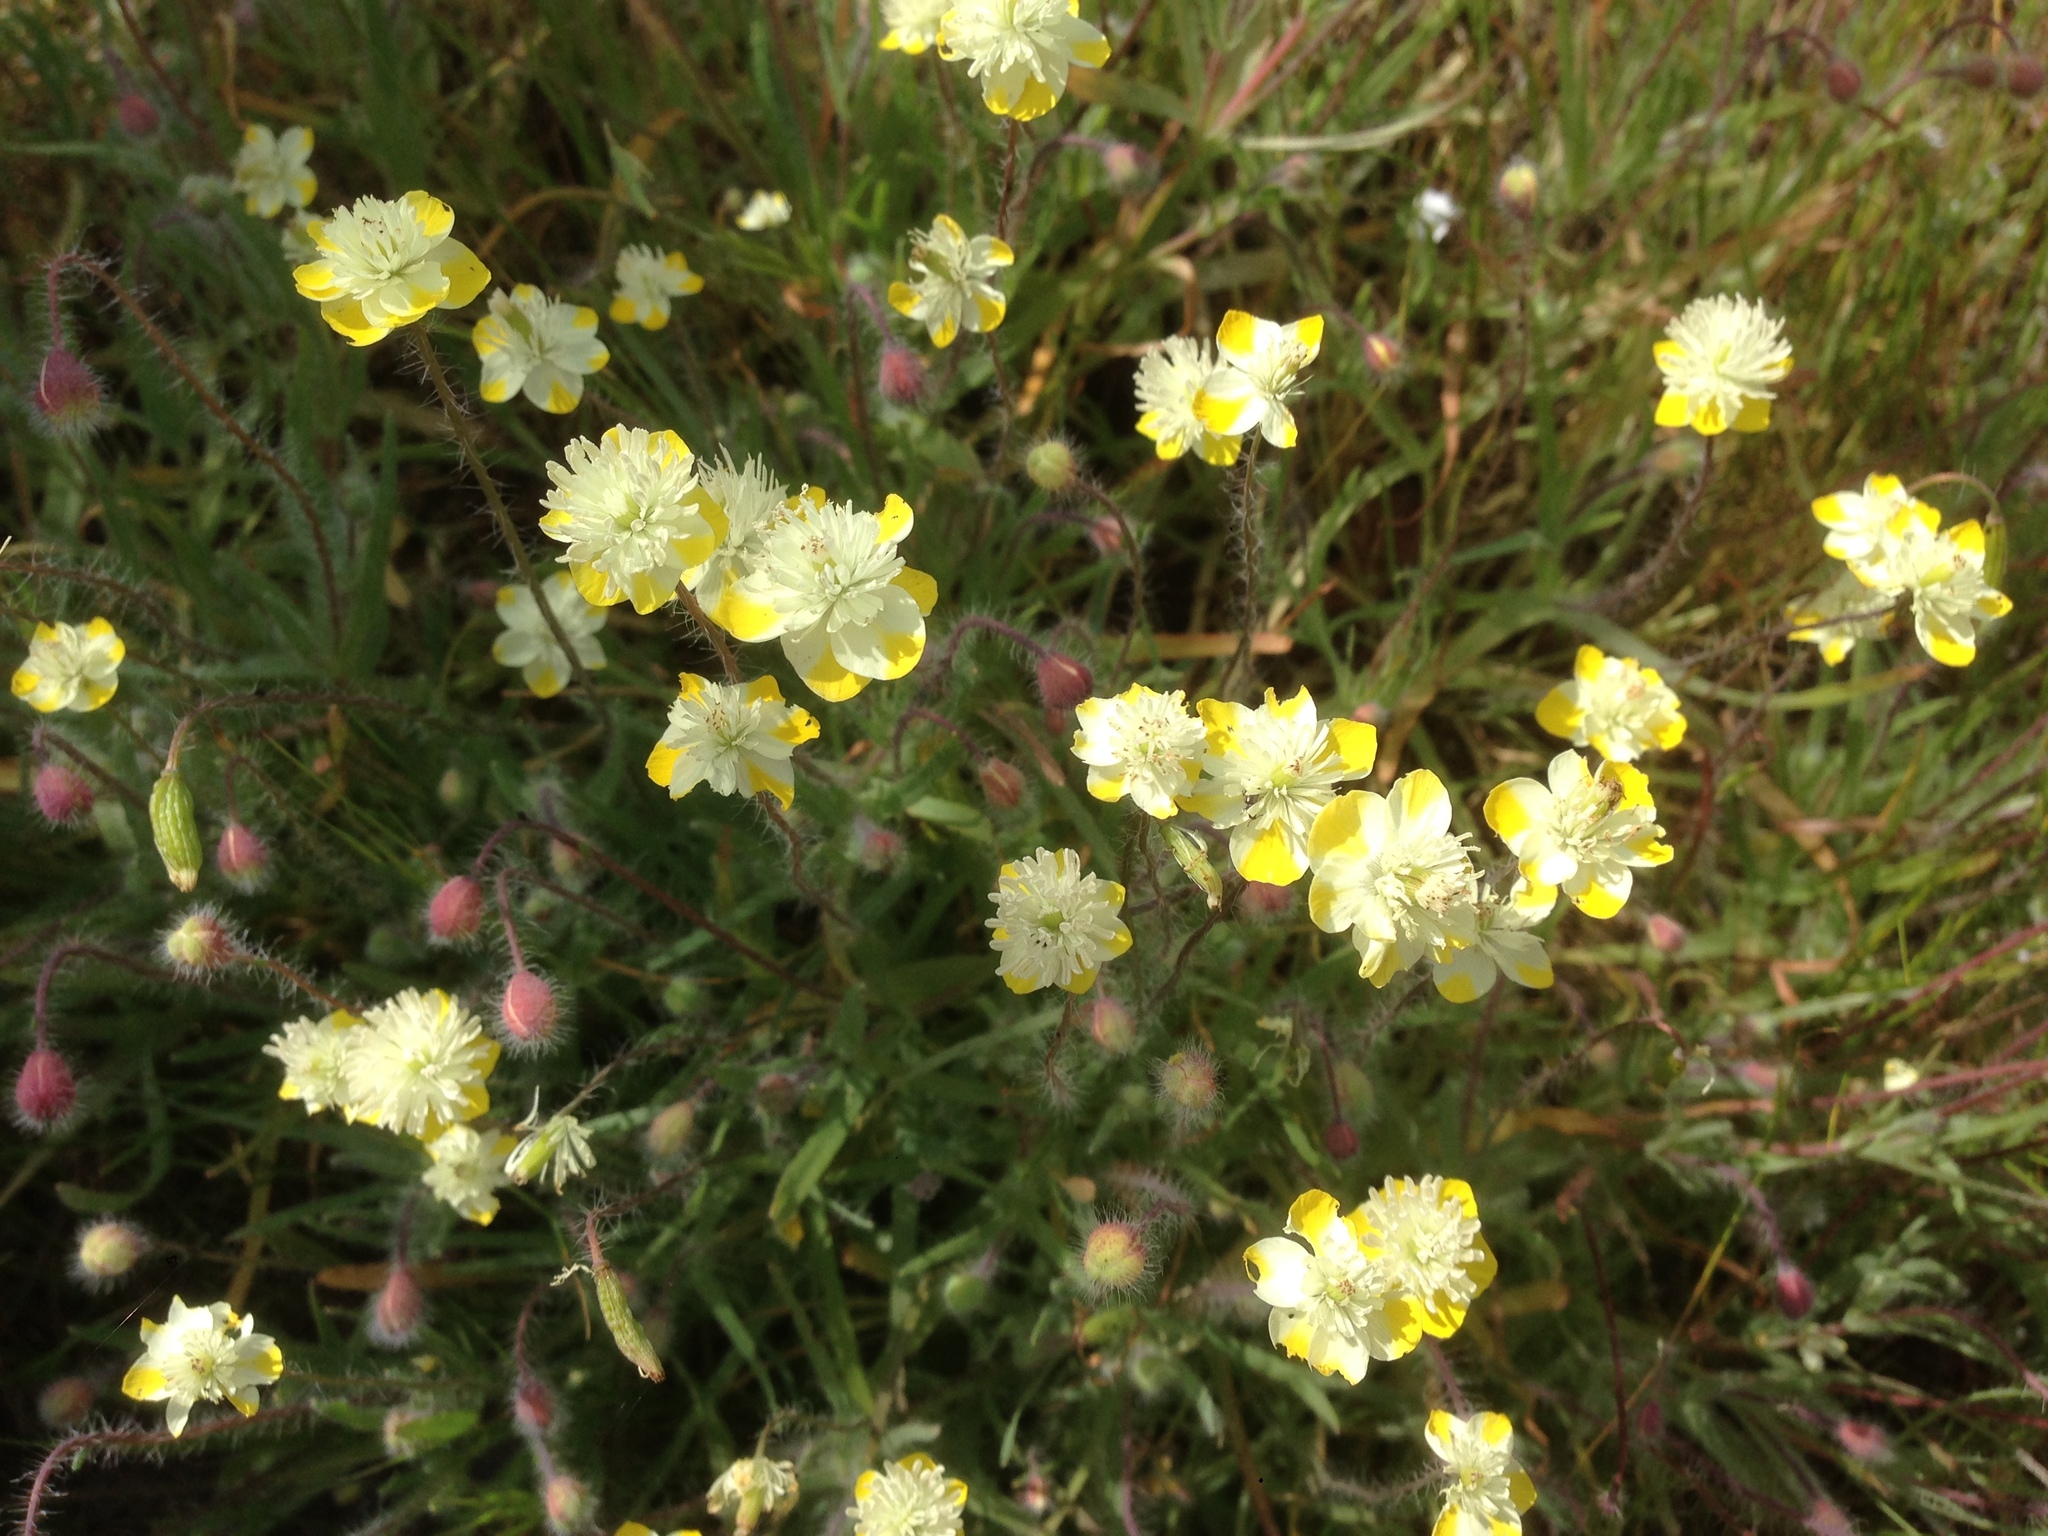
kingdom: Plantae
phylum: Tracheophyta
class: Magnoliopsida
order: Ranunculales
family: Papaveraceae
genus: Platystemon
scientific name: Platystemon californicus
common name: Cream-cups
